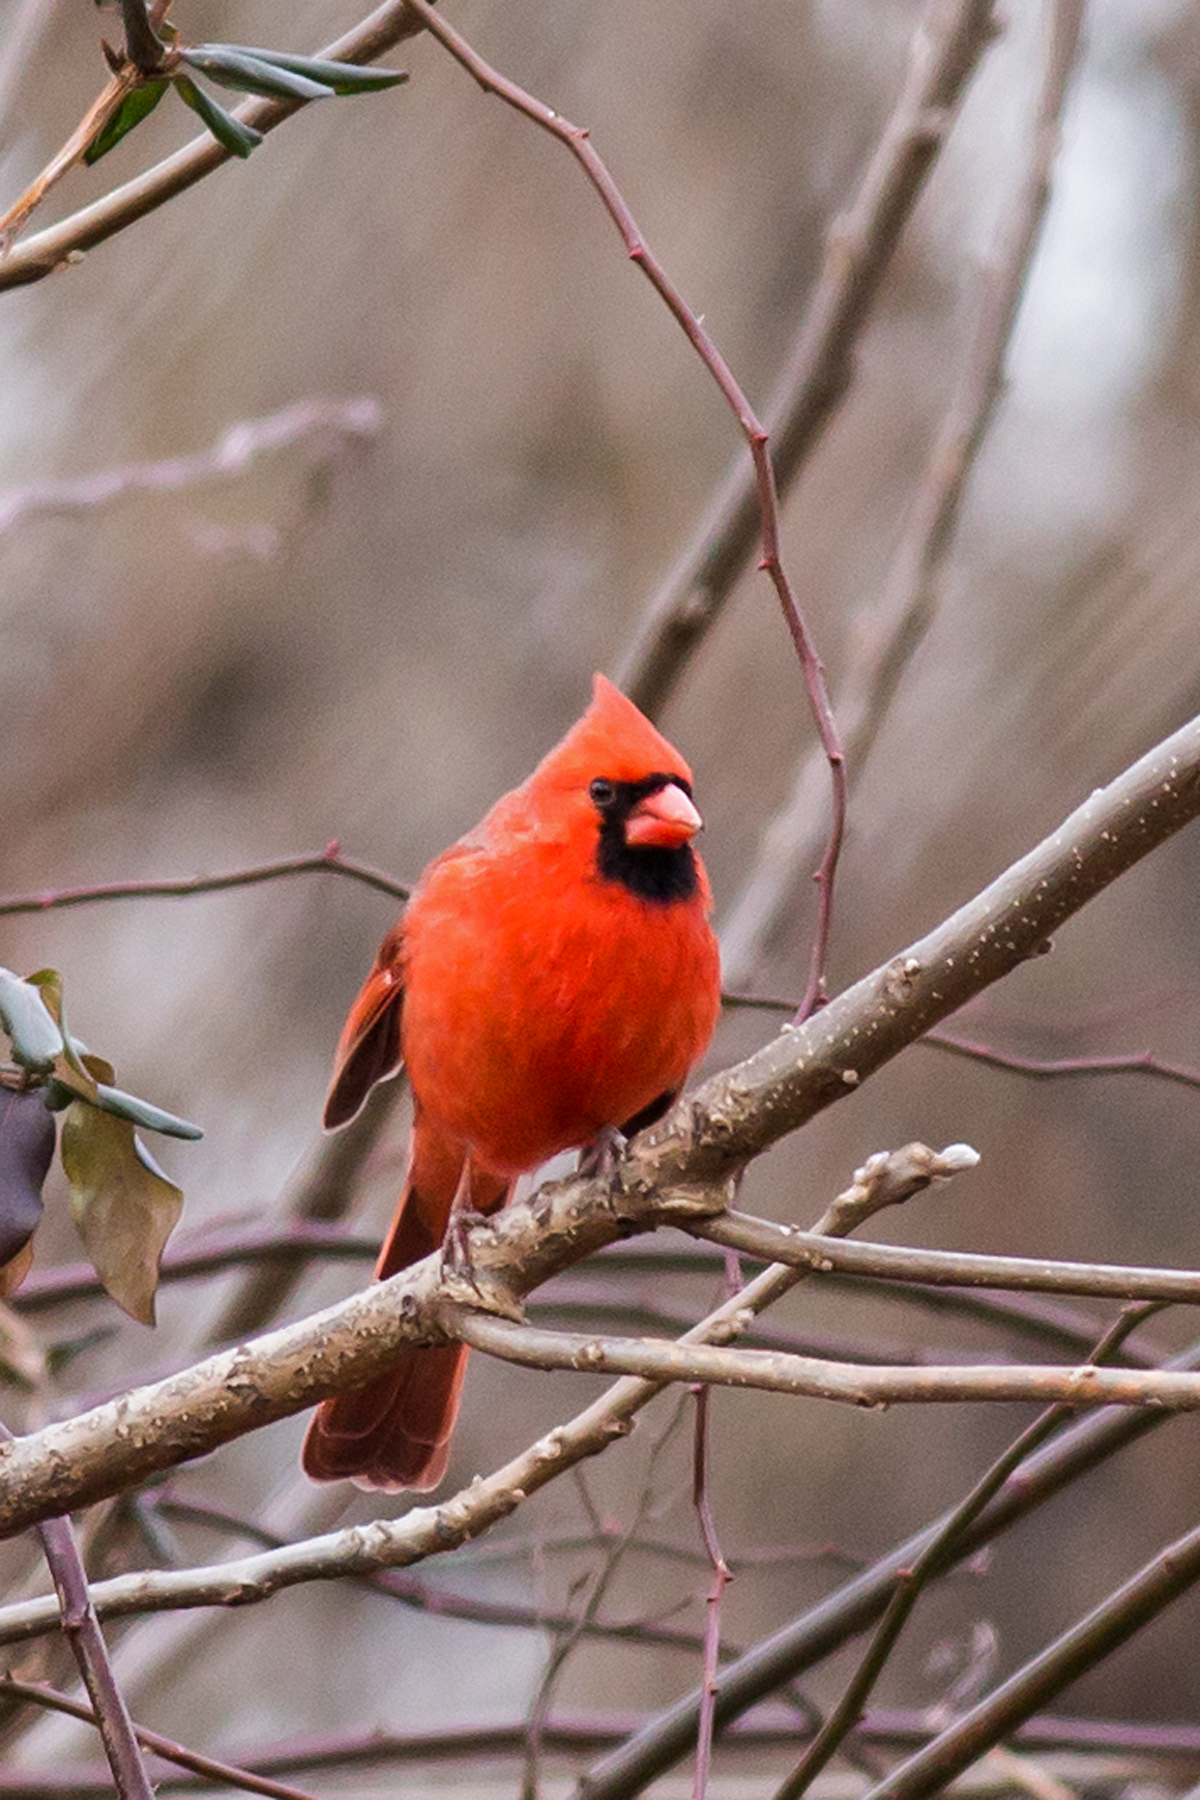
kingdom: Animalia
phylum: Chordata
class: Aves
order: Passeriformes
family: Cardinalidae
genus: Cardinalis
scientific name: Cardinalis cardinalis
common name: Northern cardinal
